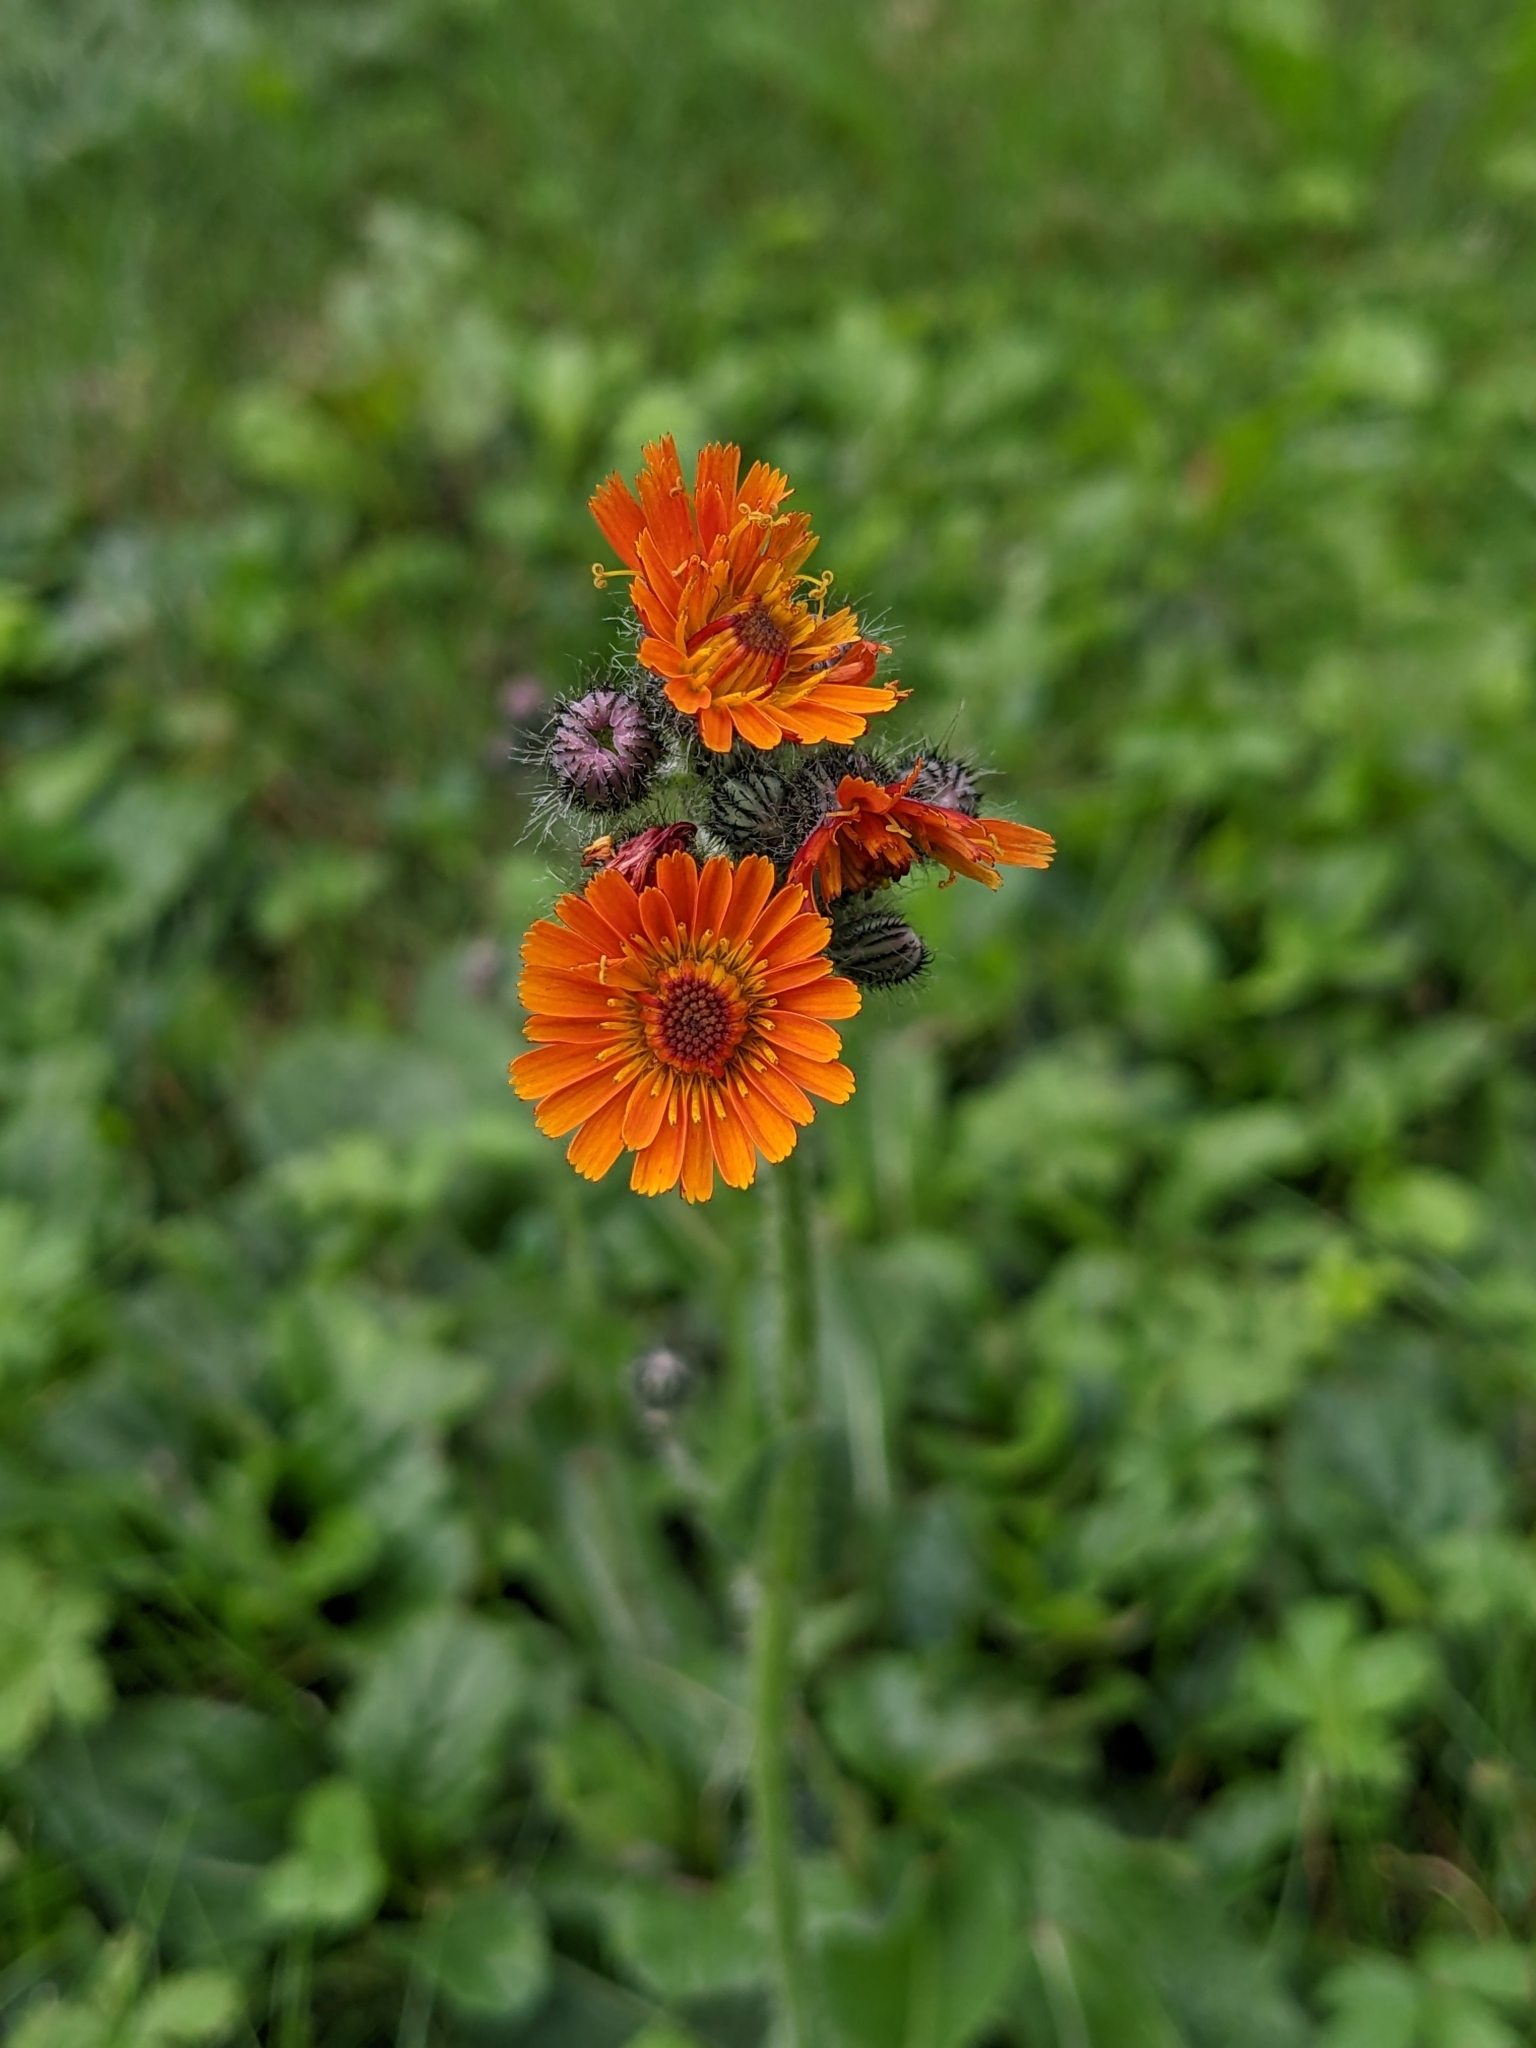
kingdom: Plantae
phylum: Tracheophyta
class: Magnoliopsida
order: Asterales
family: Asteraceae
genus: Pilosella
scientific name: Pilosella aurantiaca
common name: Fox-and-cubs
